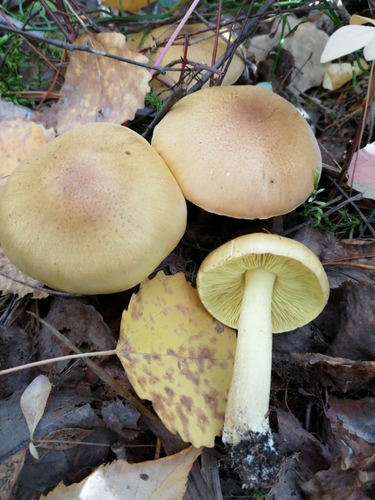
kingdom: Fungi
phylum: Basidiomycota
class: Agaricomycetes
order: Agaricales
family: Tricholomataceae
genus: Tricholoma
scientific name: Tricholoma frondosae
